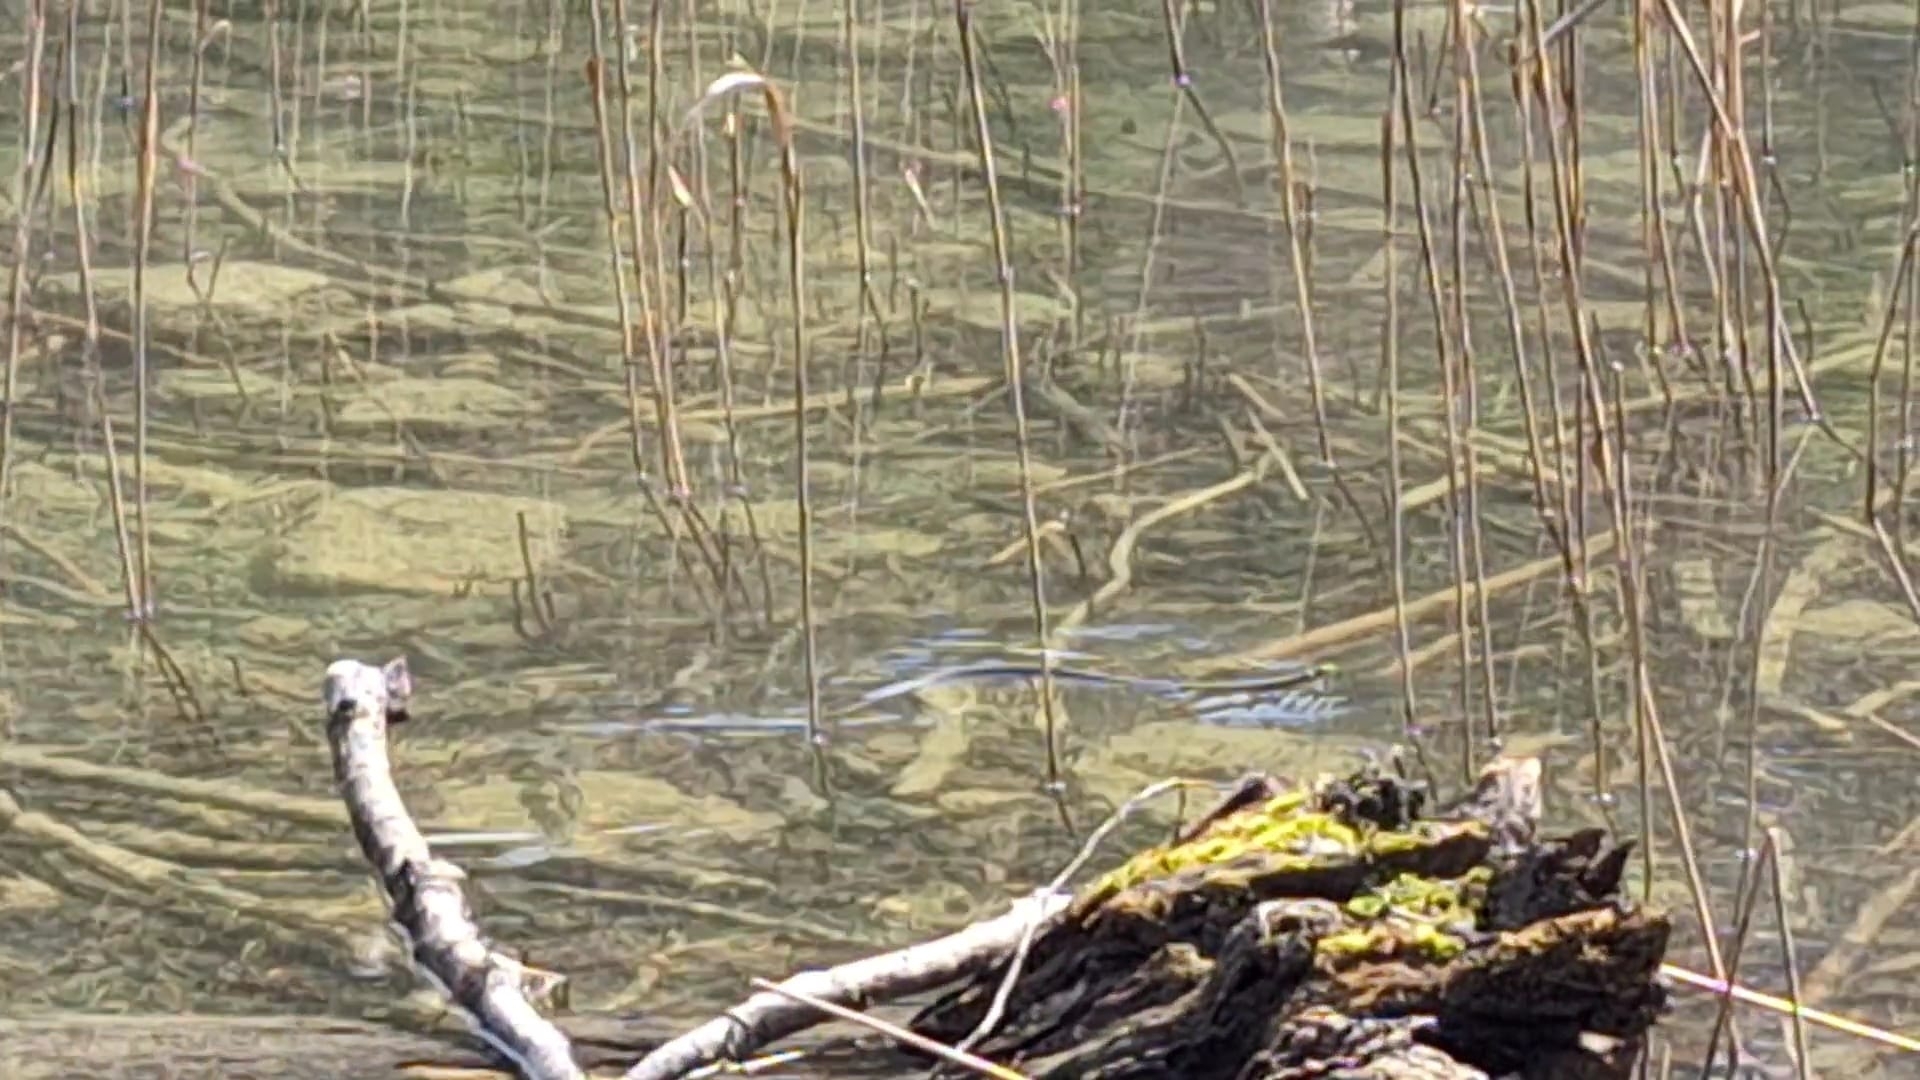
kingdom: Animalia
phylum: Chordata
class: Squamata
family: Colubridae
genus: Natrix
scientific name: Natrix natrix
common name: Grass snake
